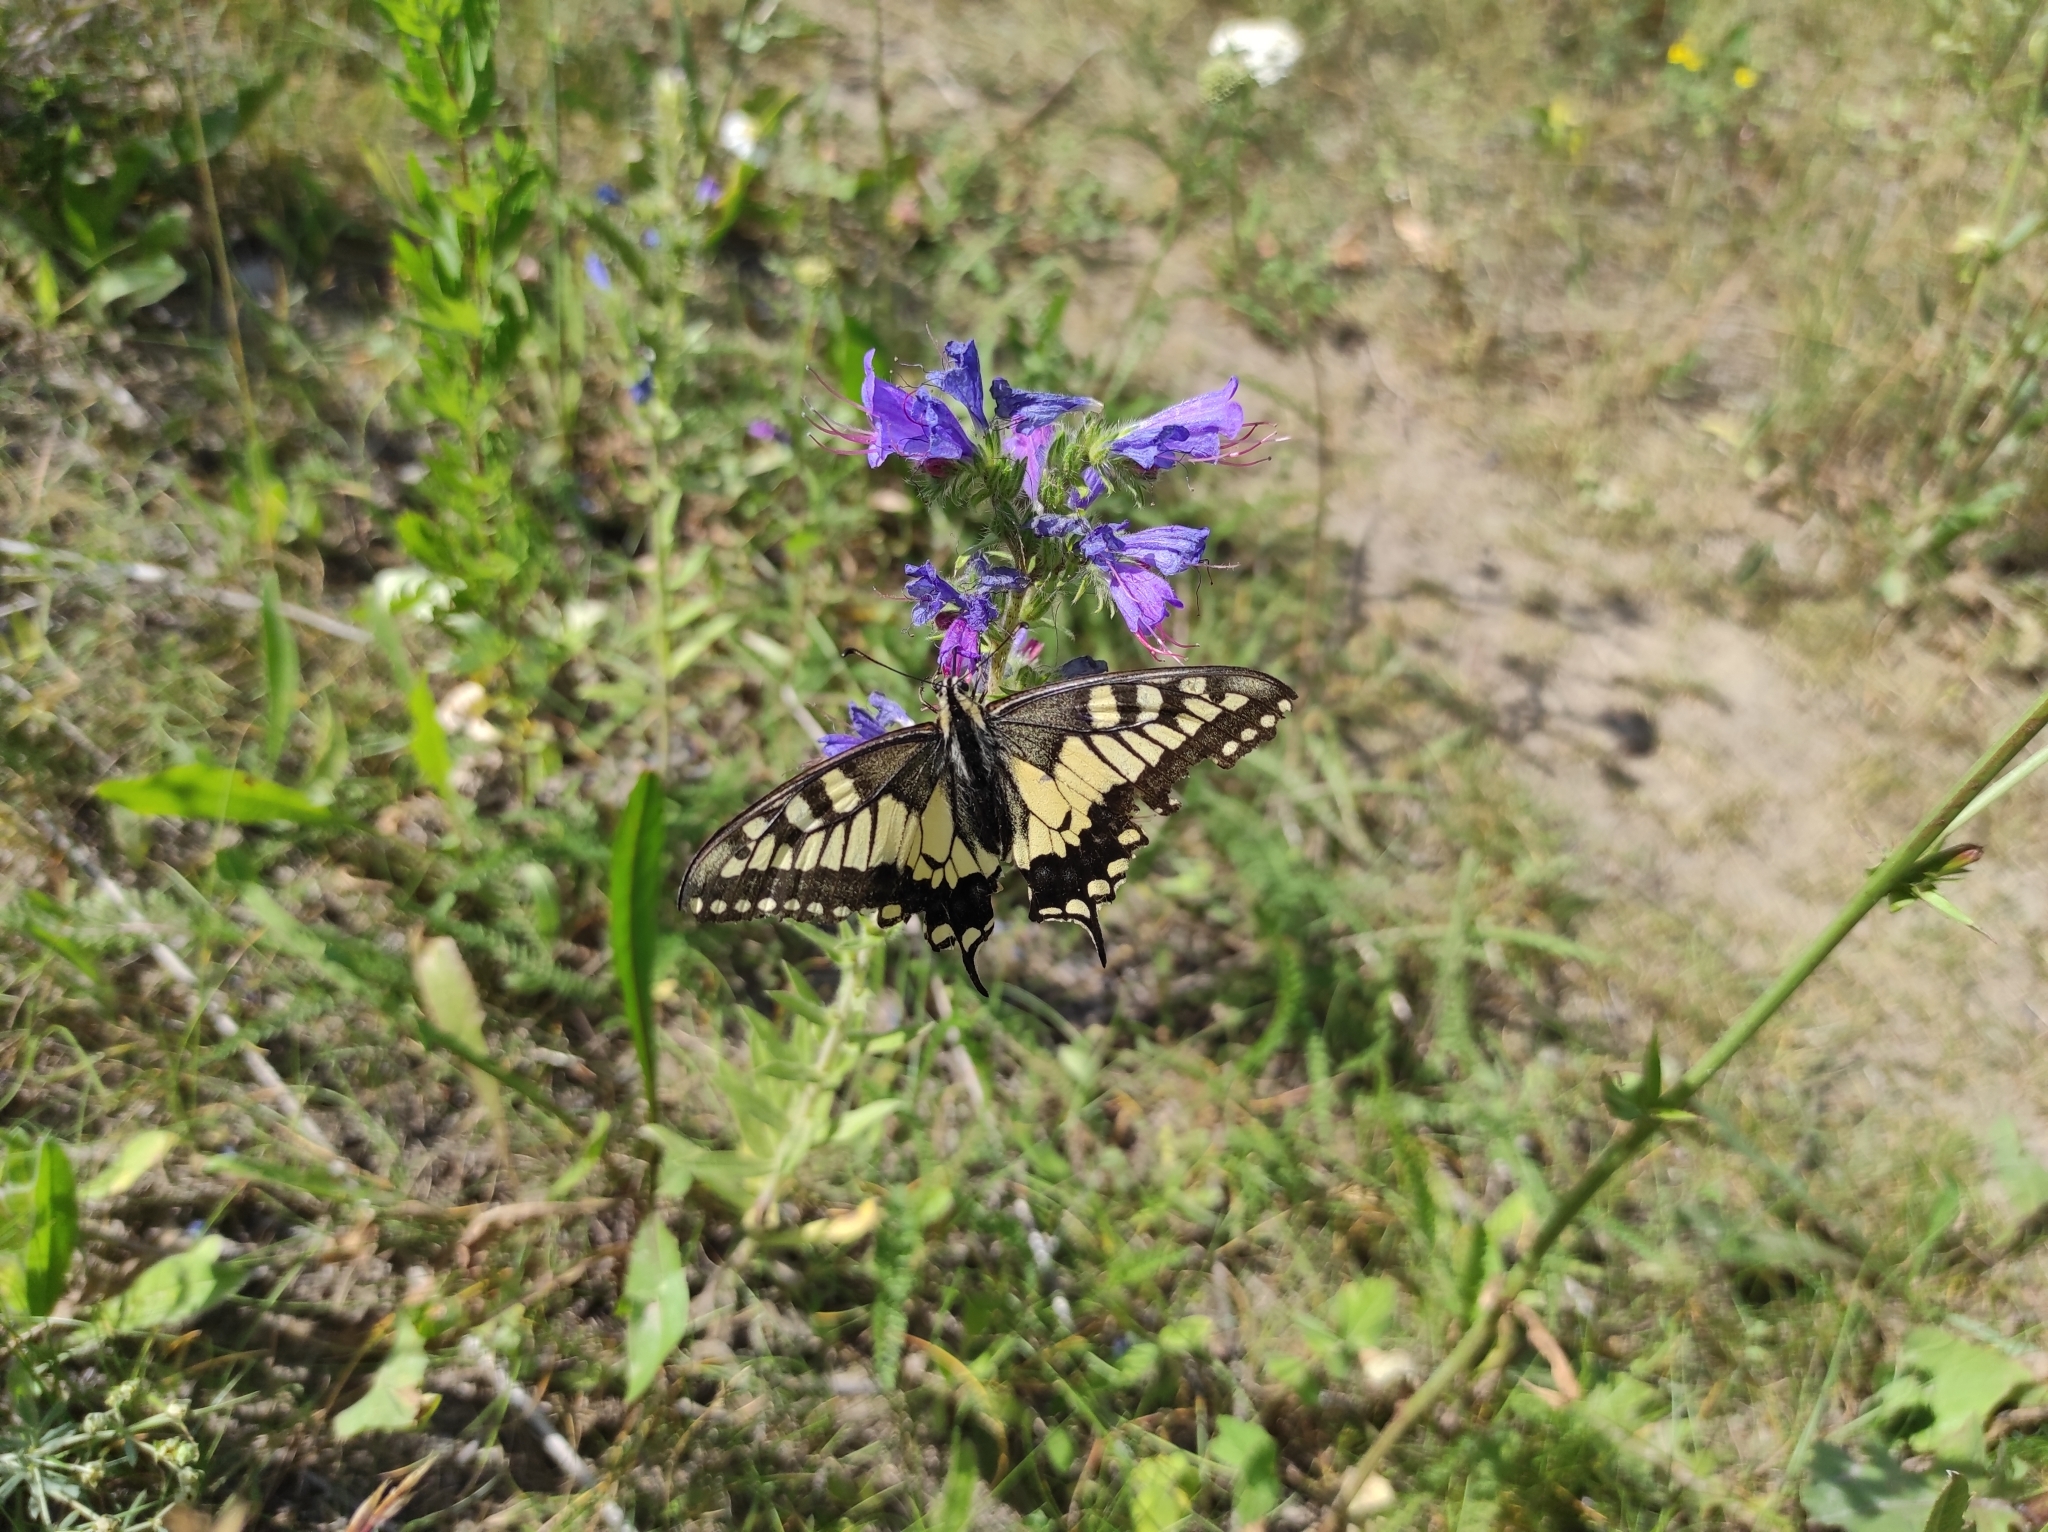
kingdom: Plantae
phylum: Tracheophyta
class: Magnoliopsida
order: Boraginales
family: Boraginaceae
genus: Echium
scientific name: Echium vulgare
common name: Common viper's bugloss
